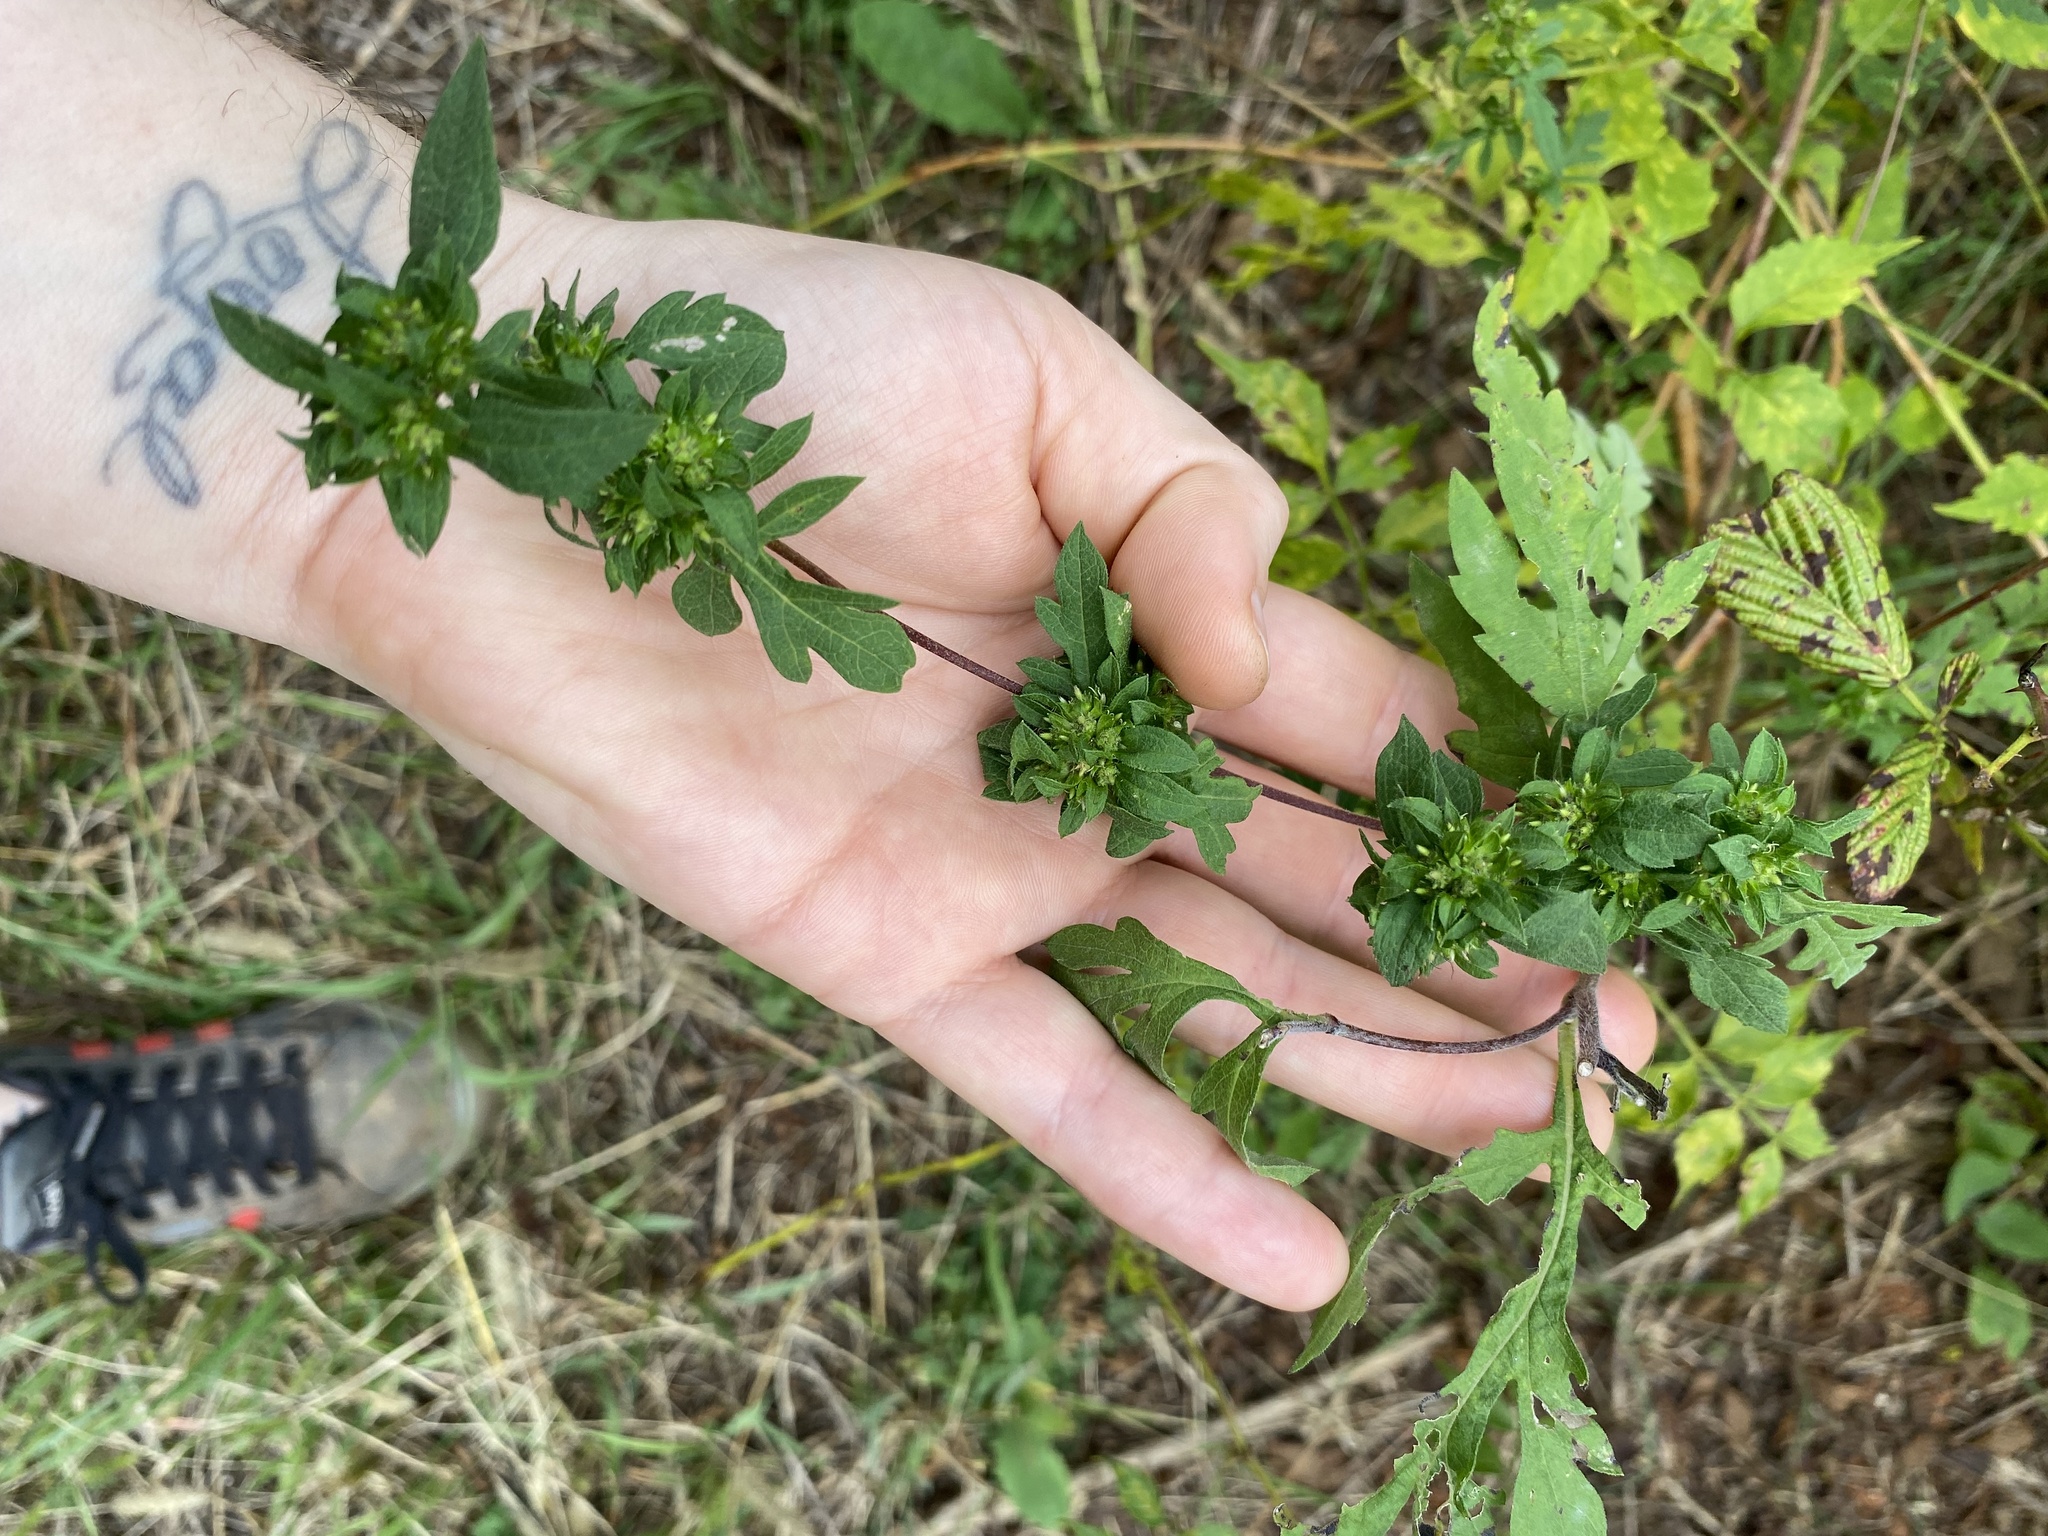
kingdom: Plantae
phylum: Tracheophyta
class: Magnoliopsida
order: Asterales
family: Asteraceae
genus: Ambrosia
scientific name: Ambrosia trifida
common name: Giant ragweed
